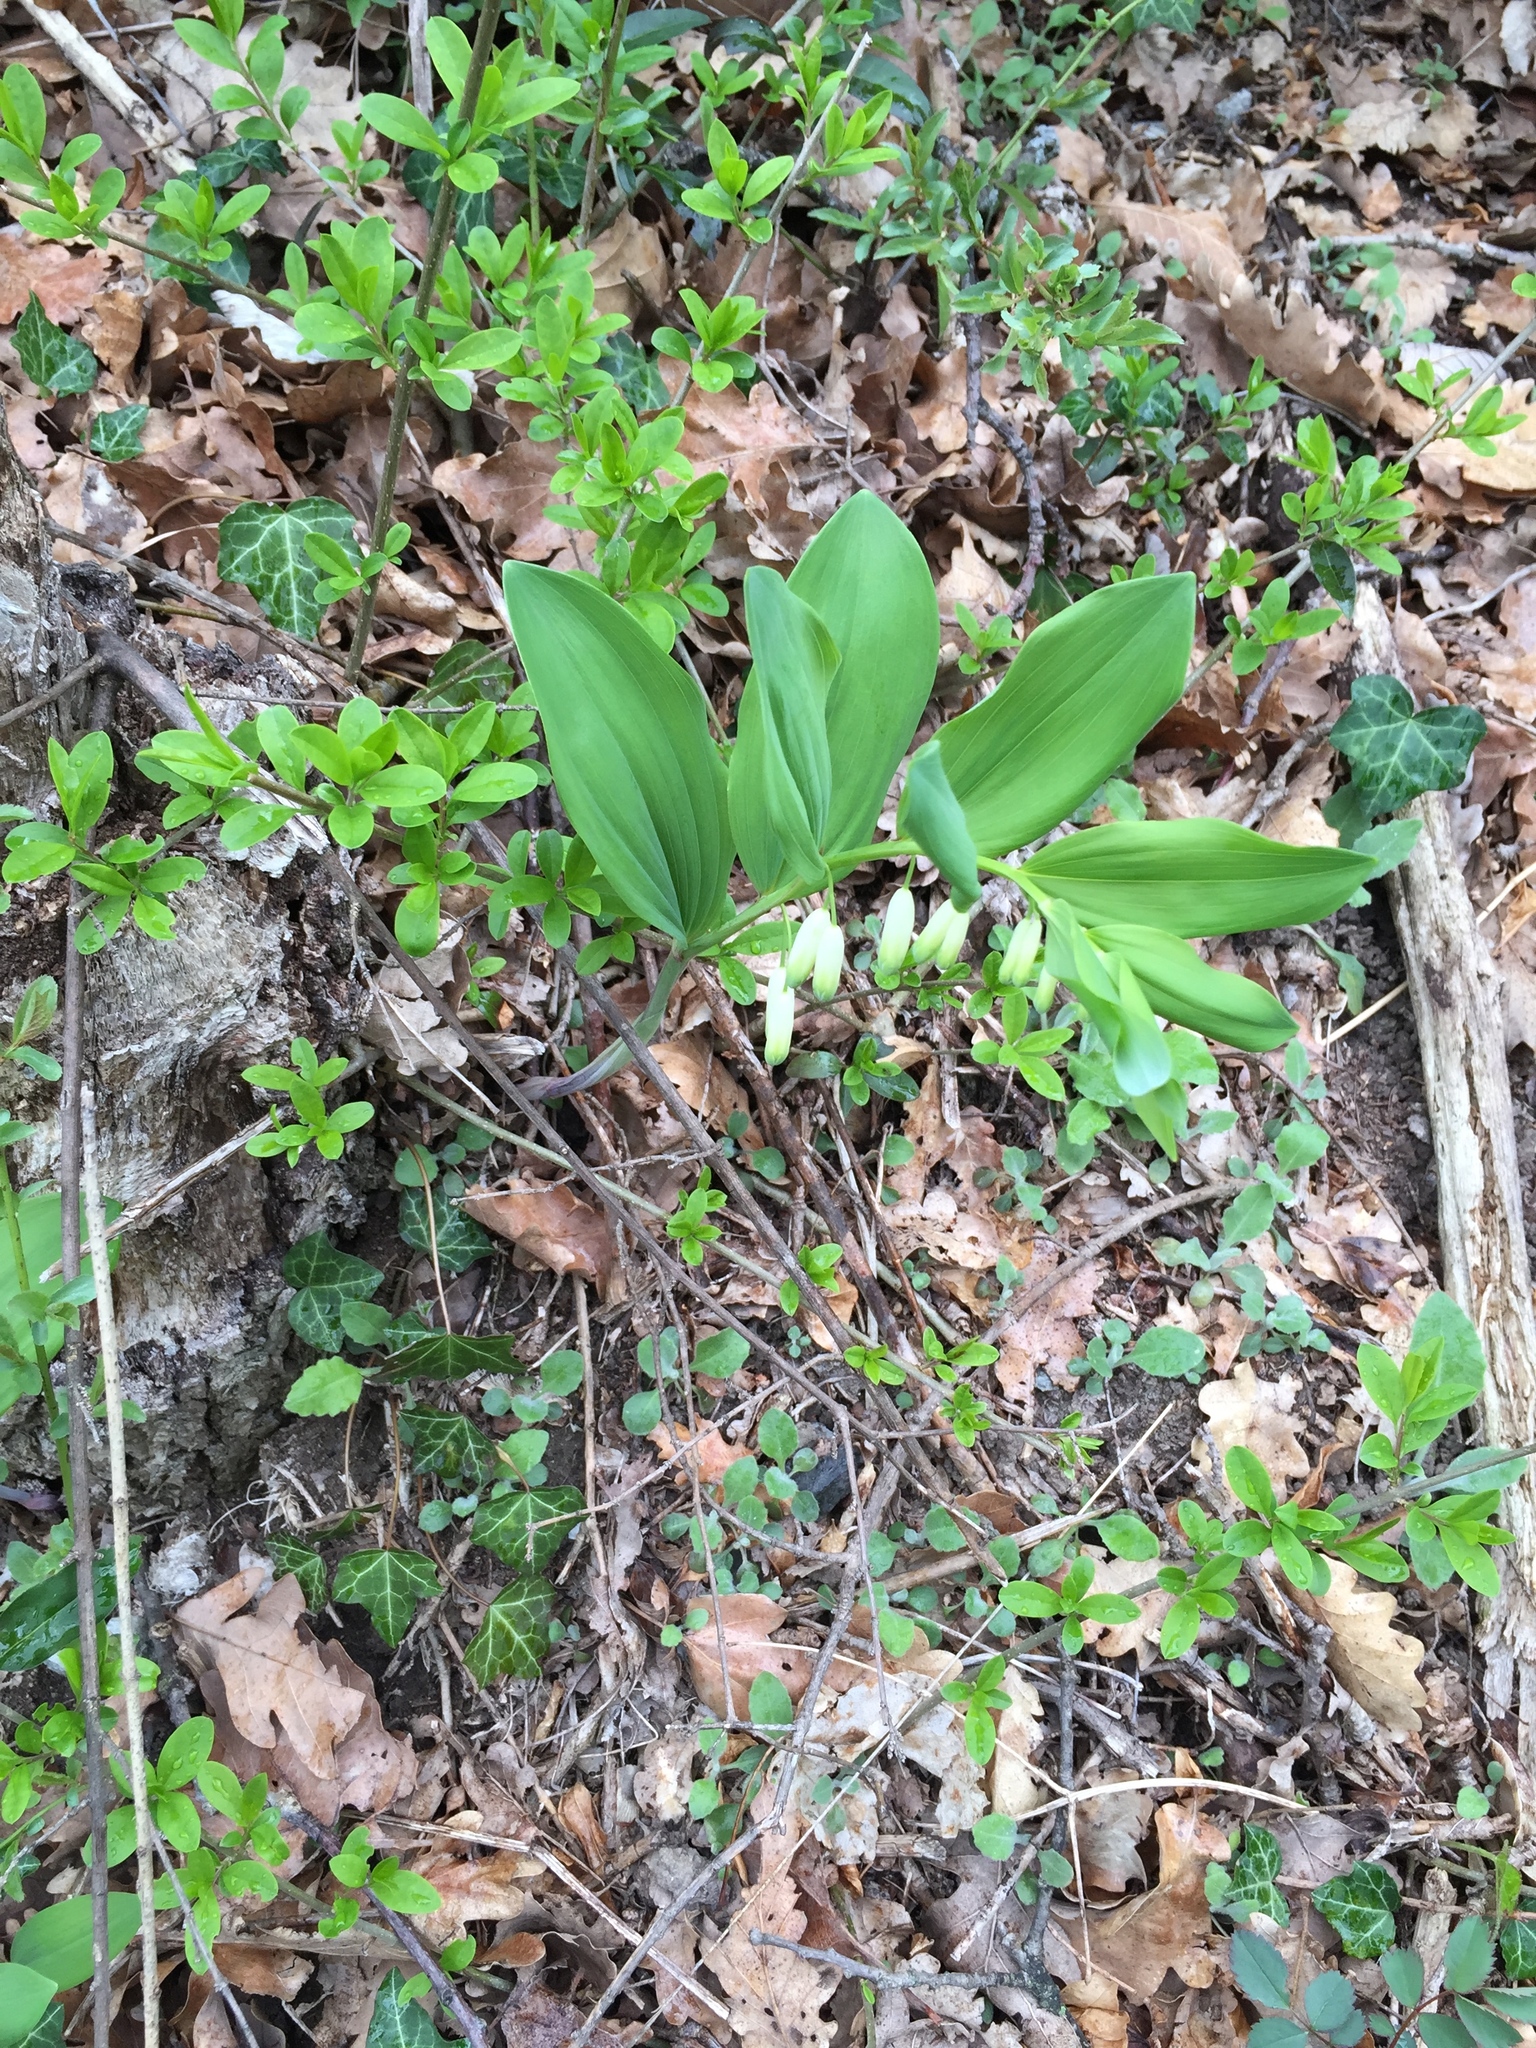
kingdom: Plantae
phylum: Tracheophyta
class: Liliopsida
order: Asparagales
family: Asparagaceae
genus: Polygonatum
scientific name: Polygonatum odoratum
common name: Angular solomon's-seal
